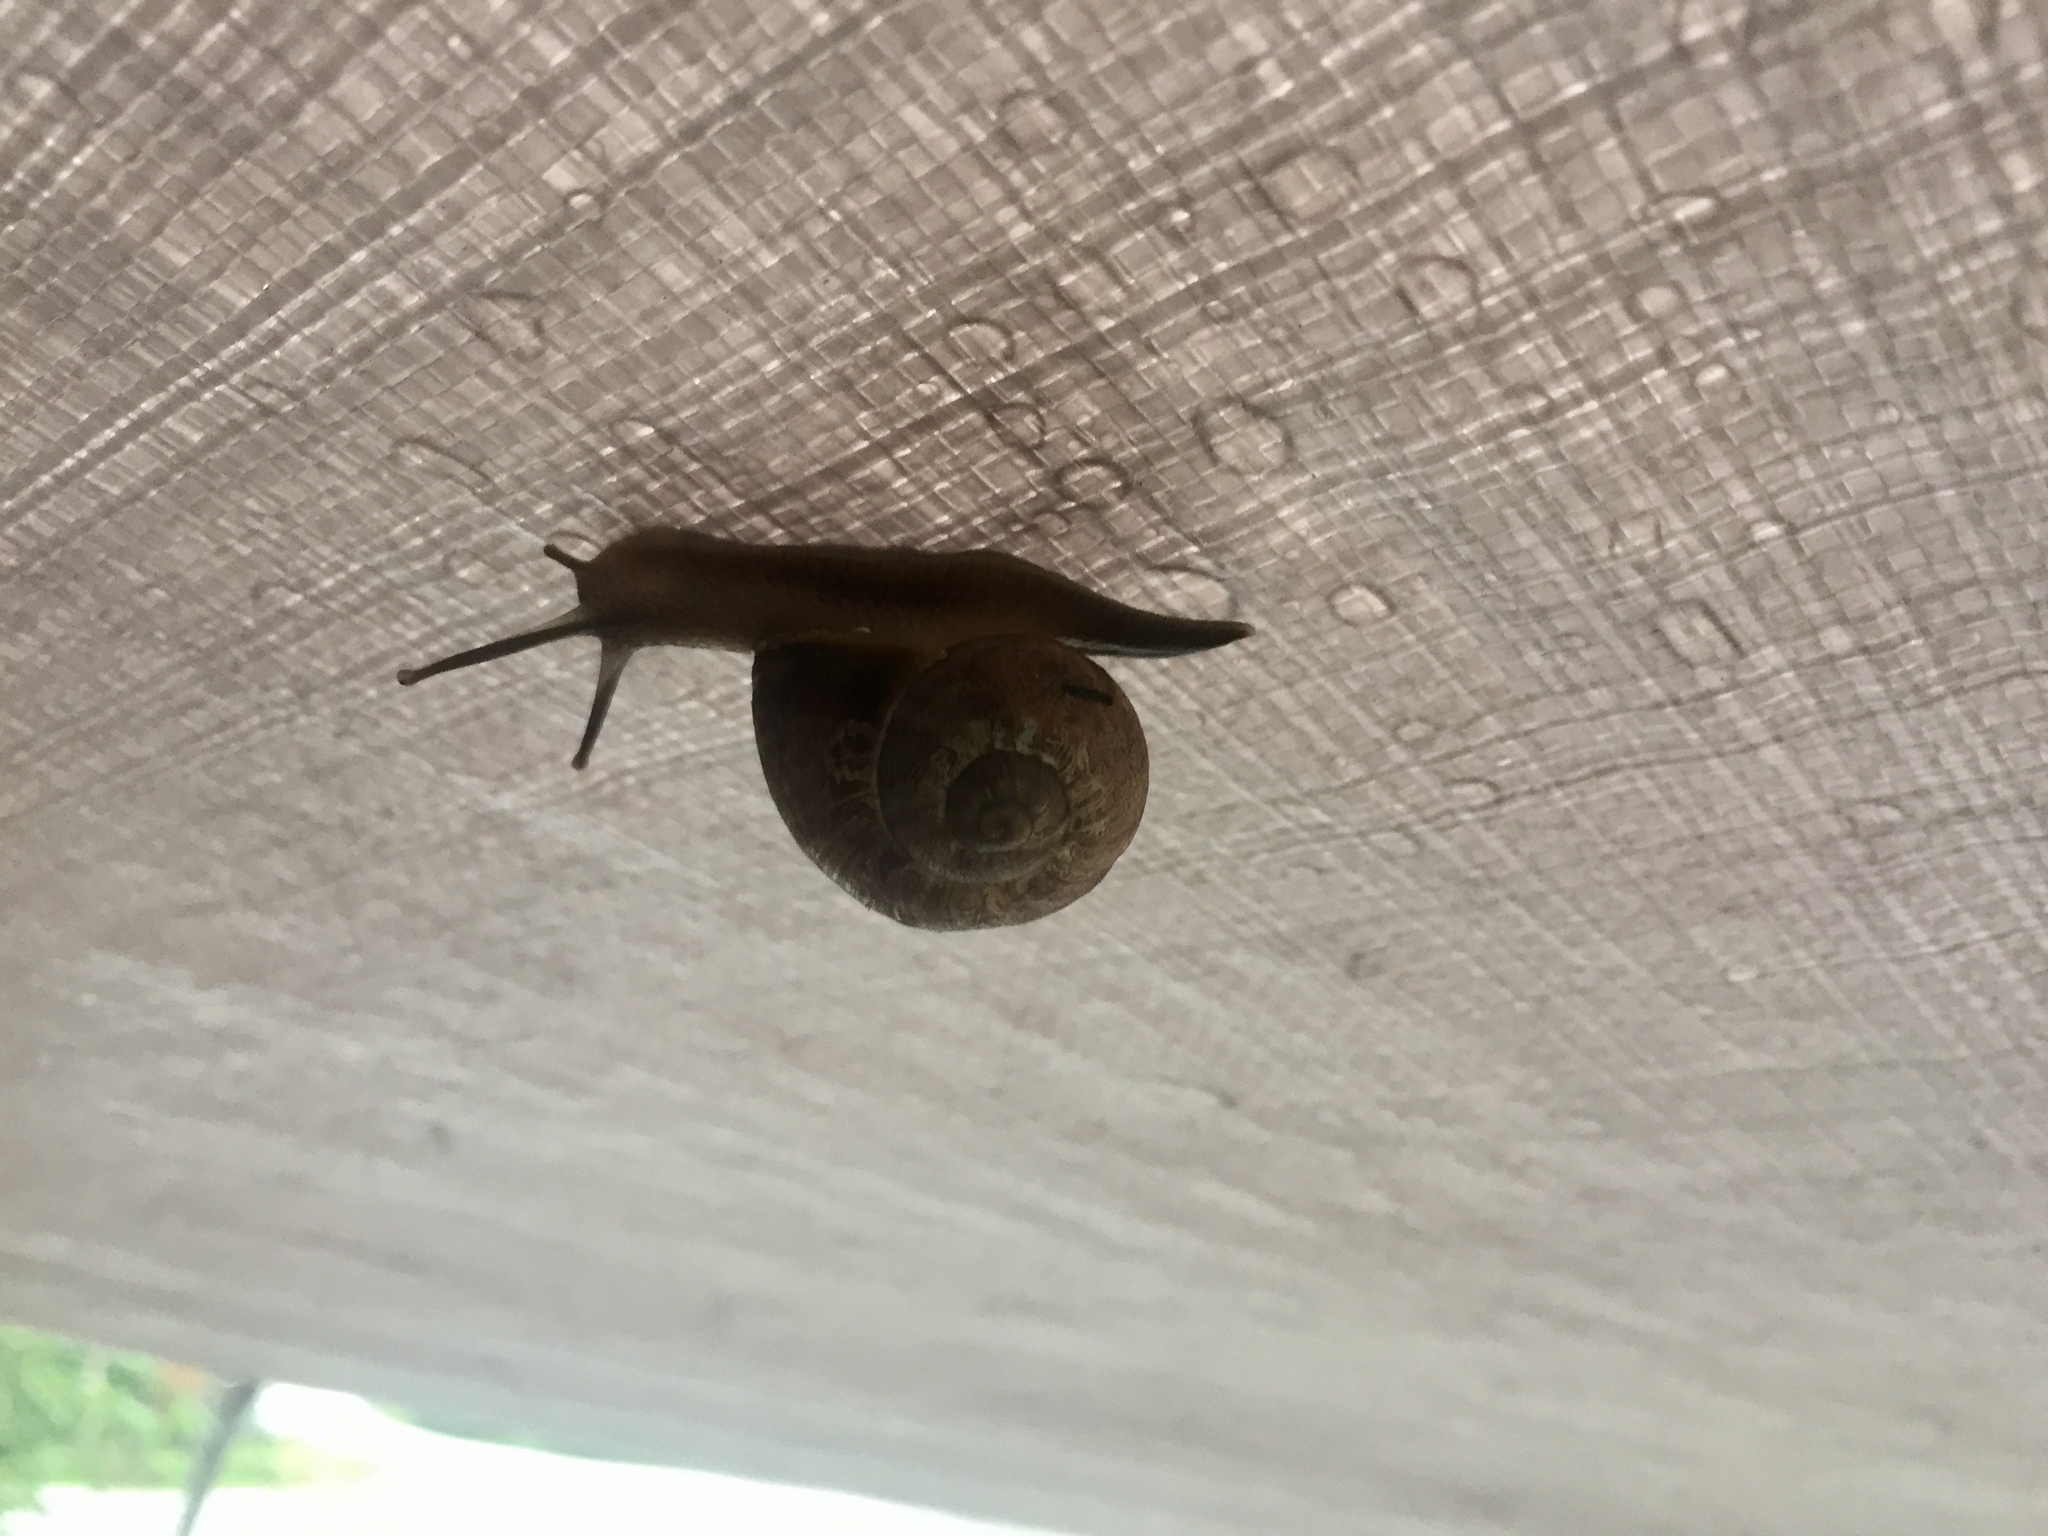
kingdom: Animalia
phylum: Mollusca
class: Gastropoda
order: Stylommatophora
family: Helicidae
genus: Cornu
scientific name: Cornu aspersum
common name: Brown garden snail
